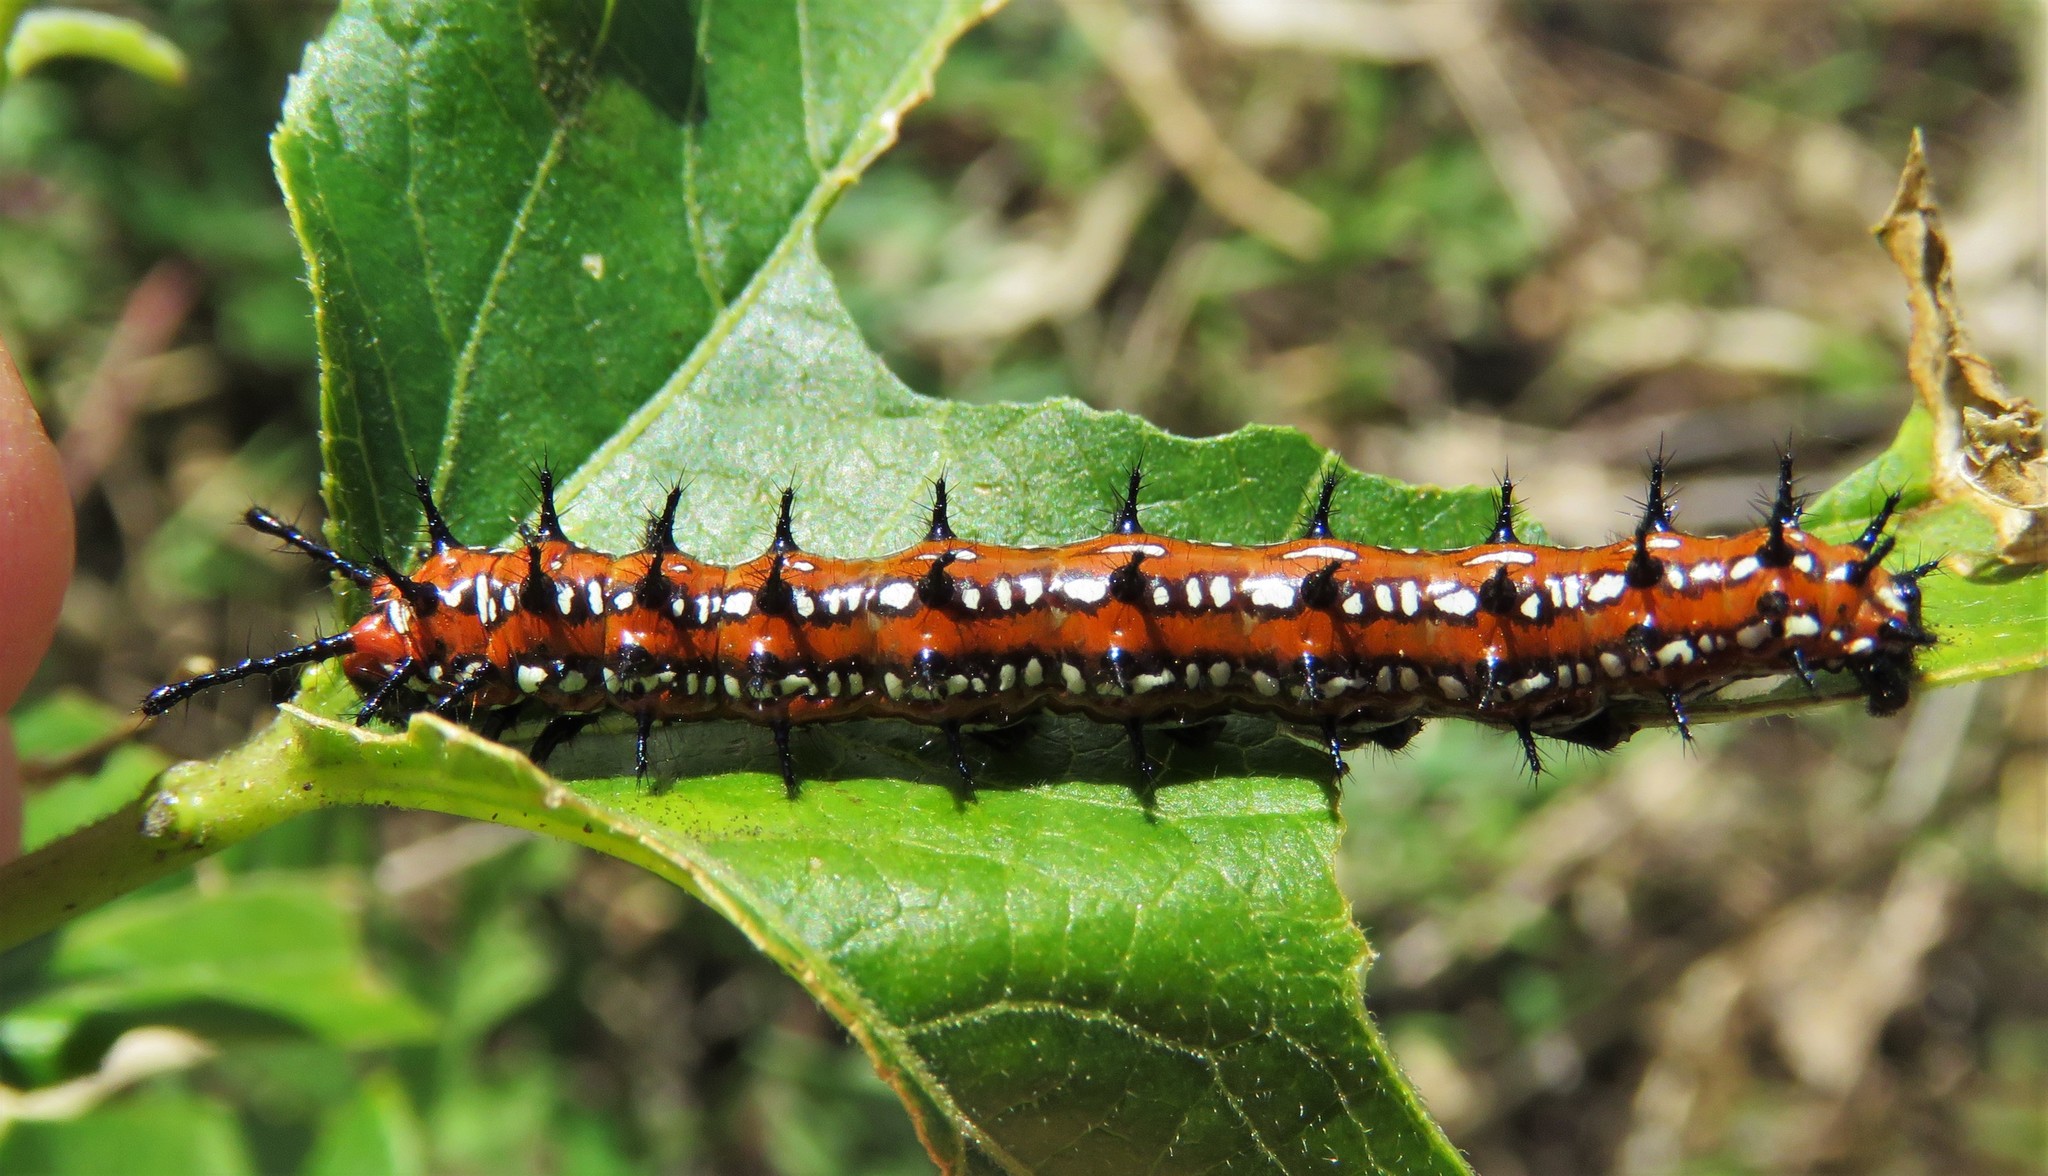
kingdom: Animalia
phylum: Arthropoda
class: Insecta
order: Lepidoptera
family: Nymphalidae
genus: Euptoieta
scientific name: Euptoieta claudia
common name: Variegated fritillary
